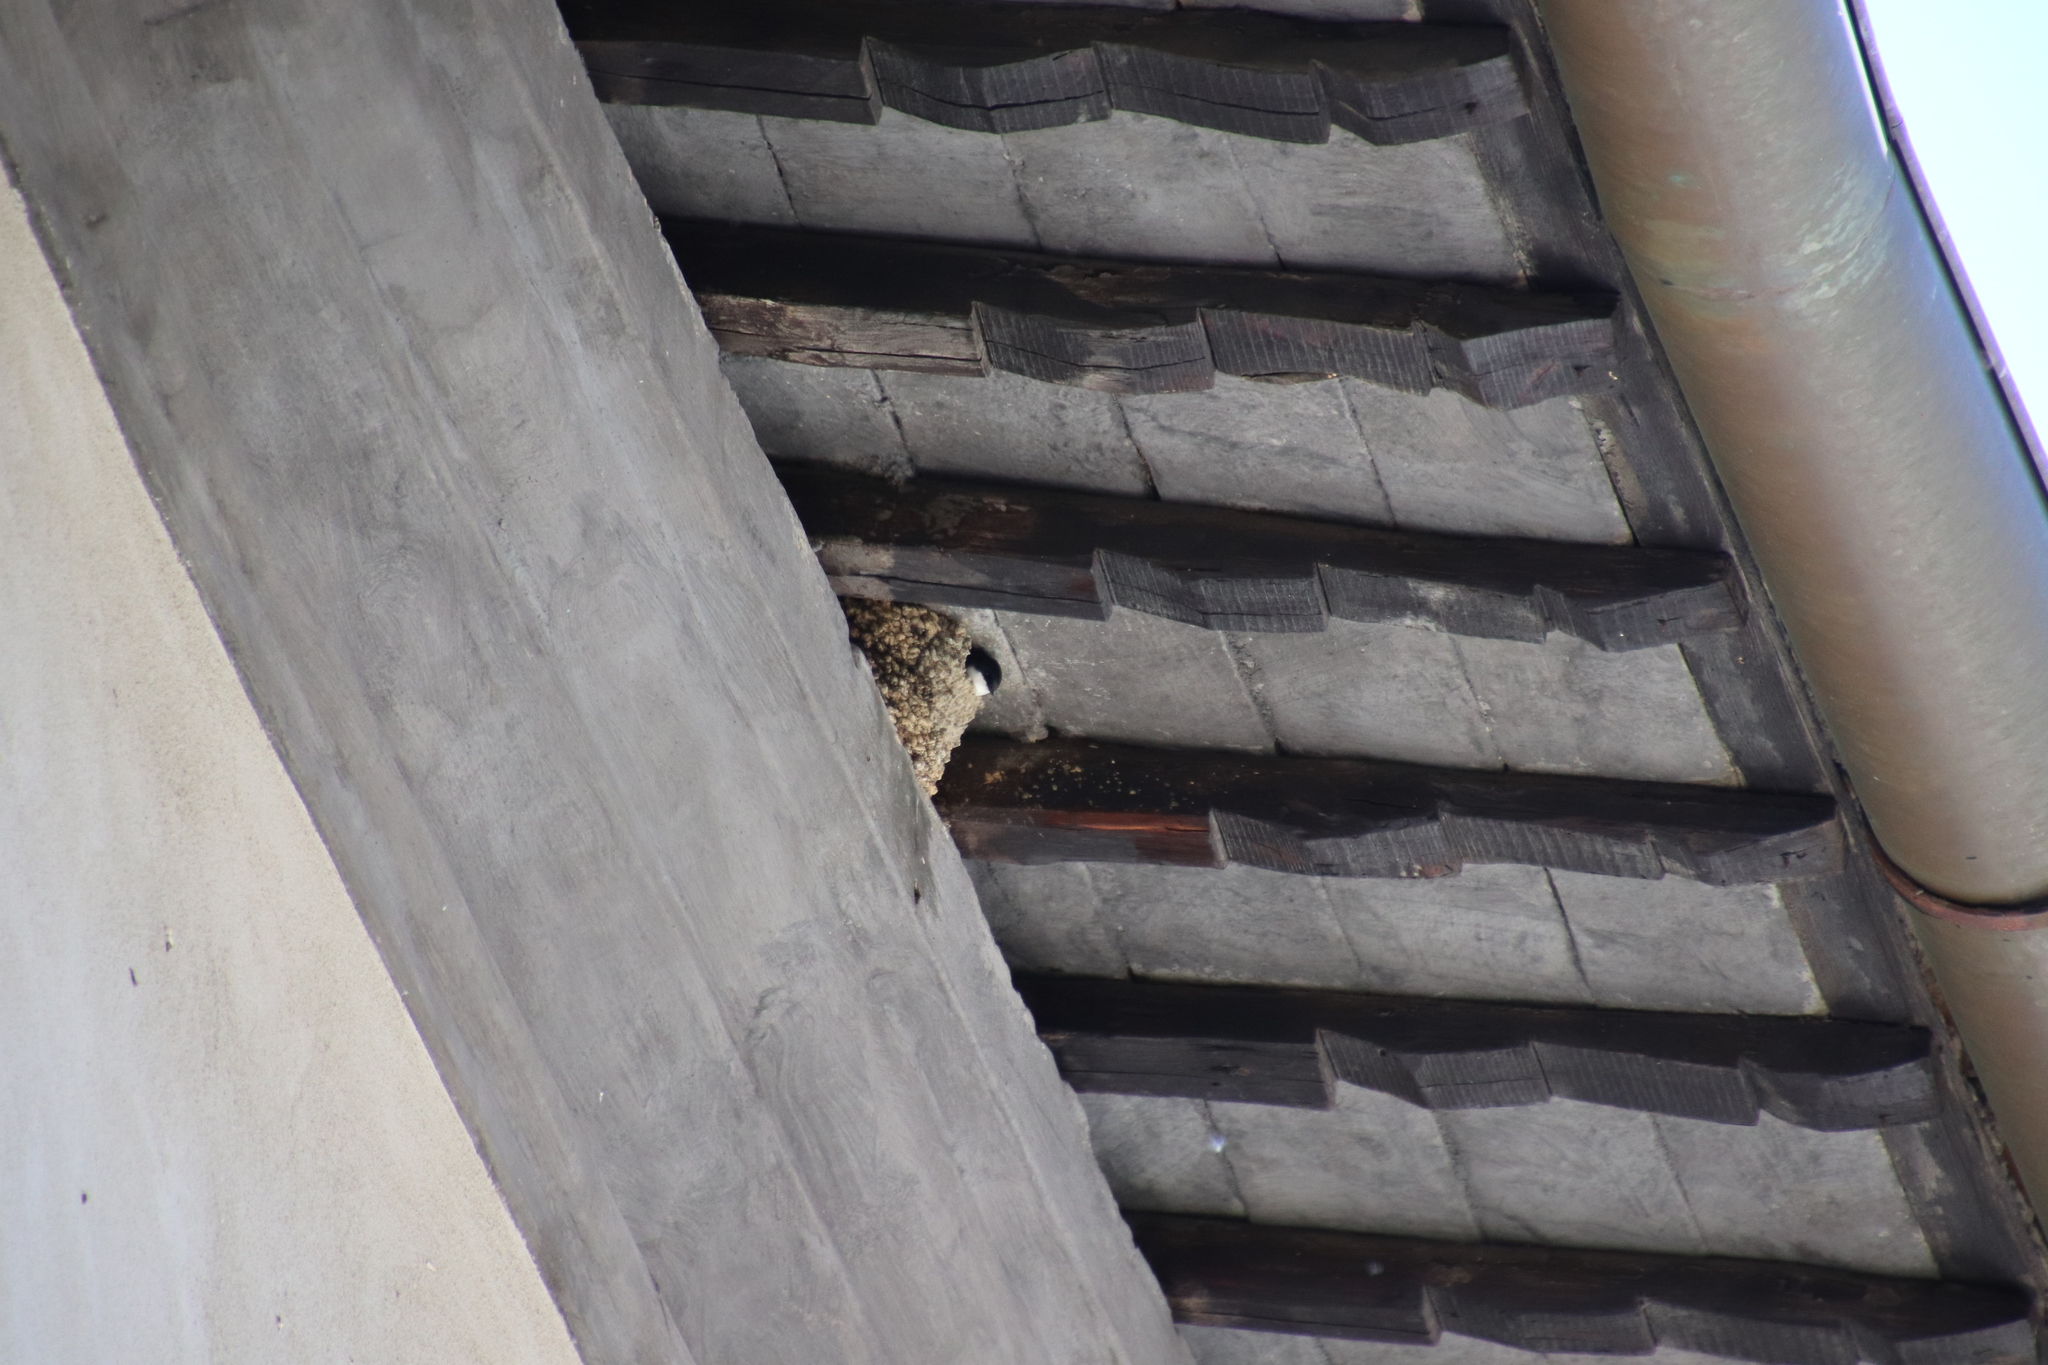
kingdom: Animalia
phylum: Chordata
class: Aves
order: Passeriformes
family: Hirundinidae
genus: Delichon
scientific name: Delichon urbicum
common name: Common house martin
